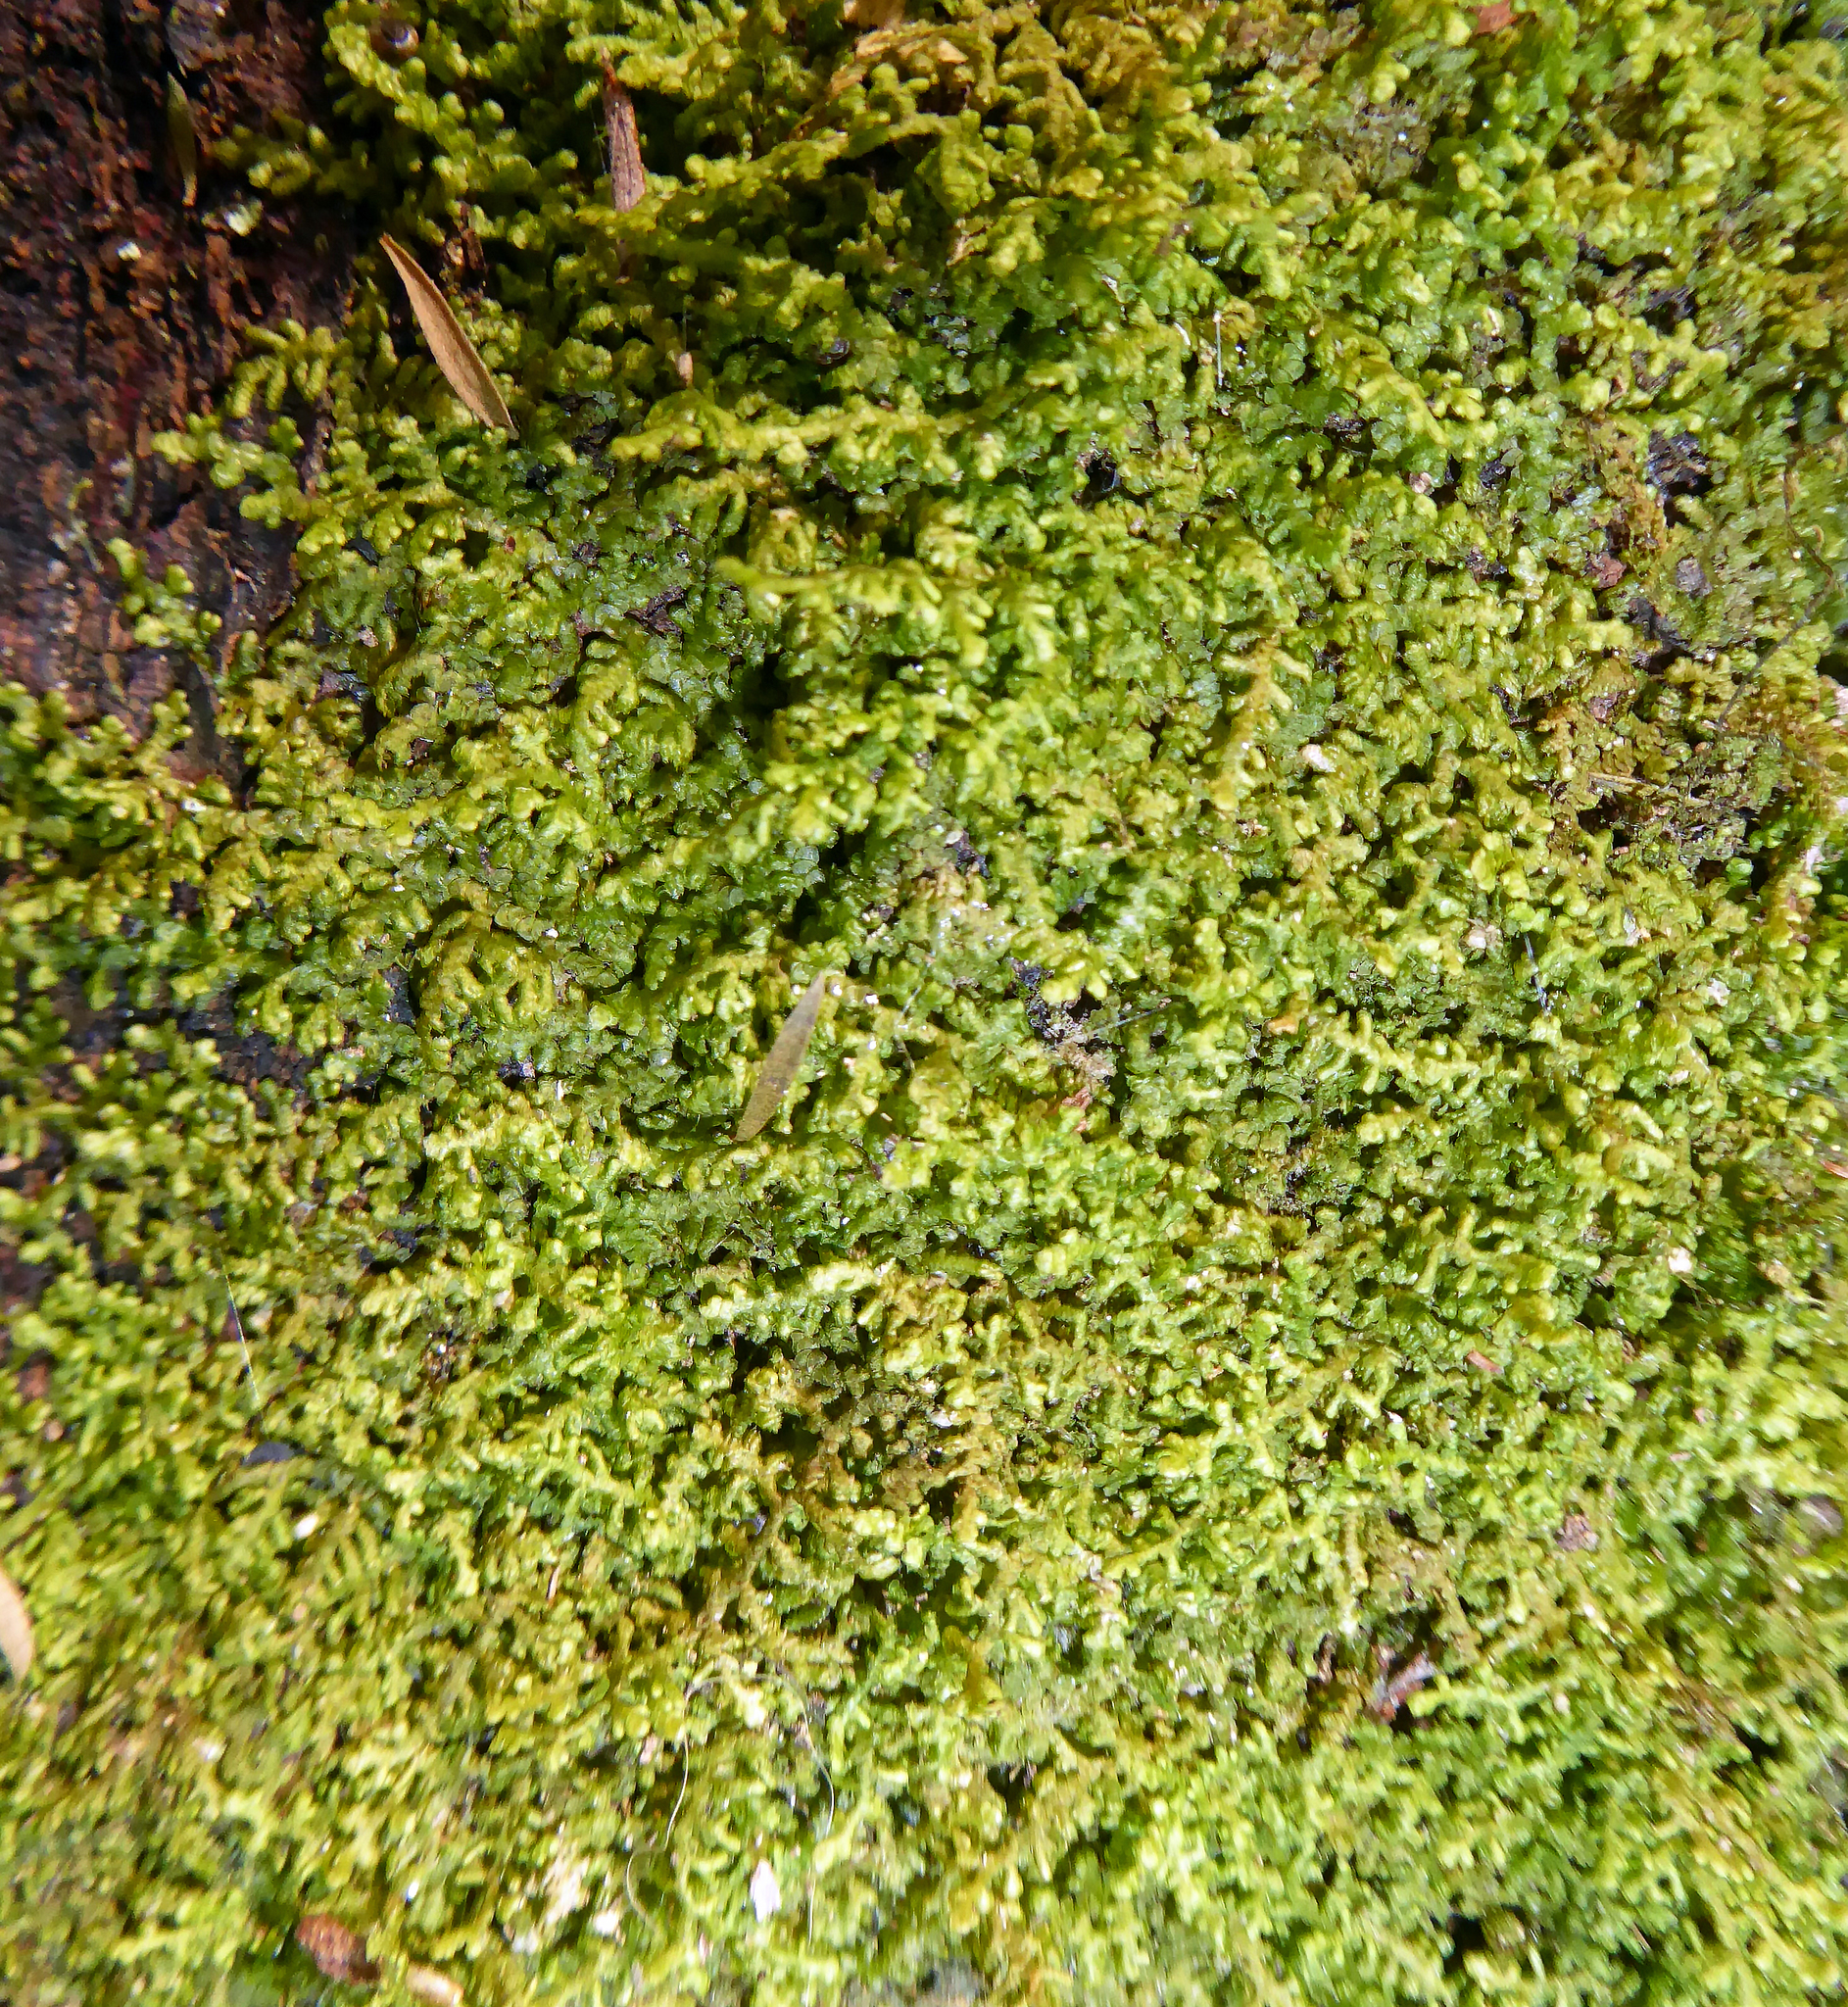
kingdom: Plantae
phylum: Marchantiophyta
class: Jungermanniopsida
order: Porellales
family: Lepidolaenaceae
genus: Lepidolaena
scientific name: Lepidolaena taylorii
